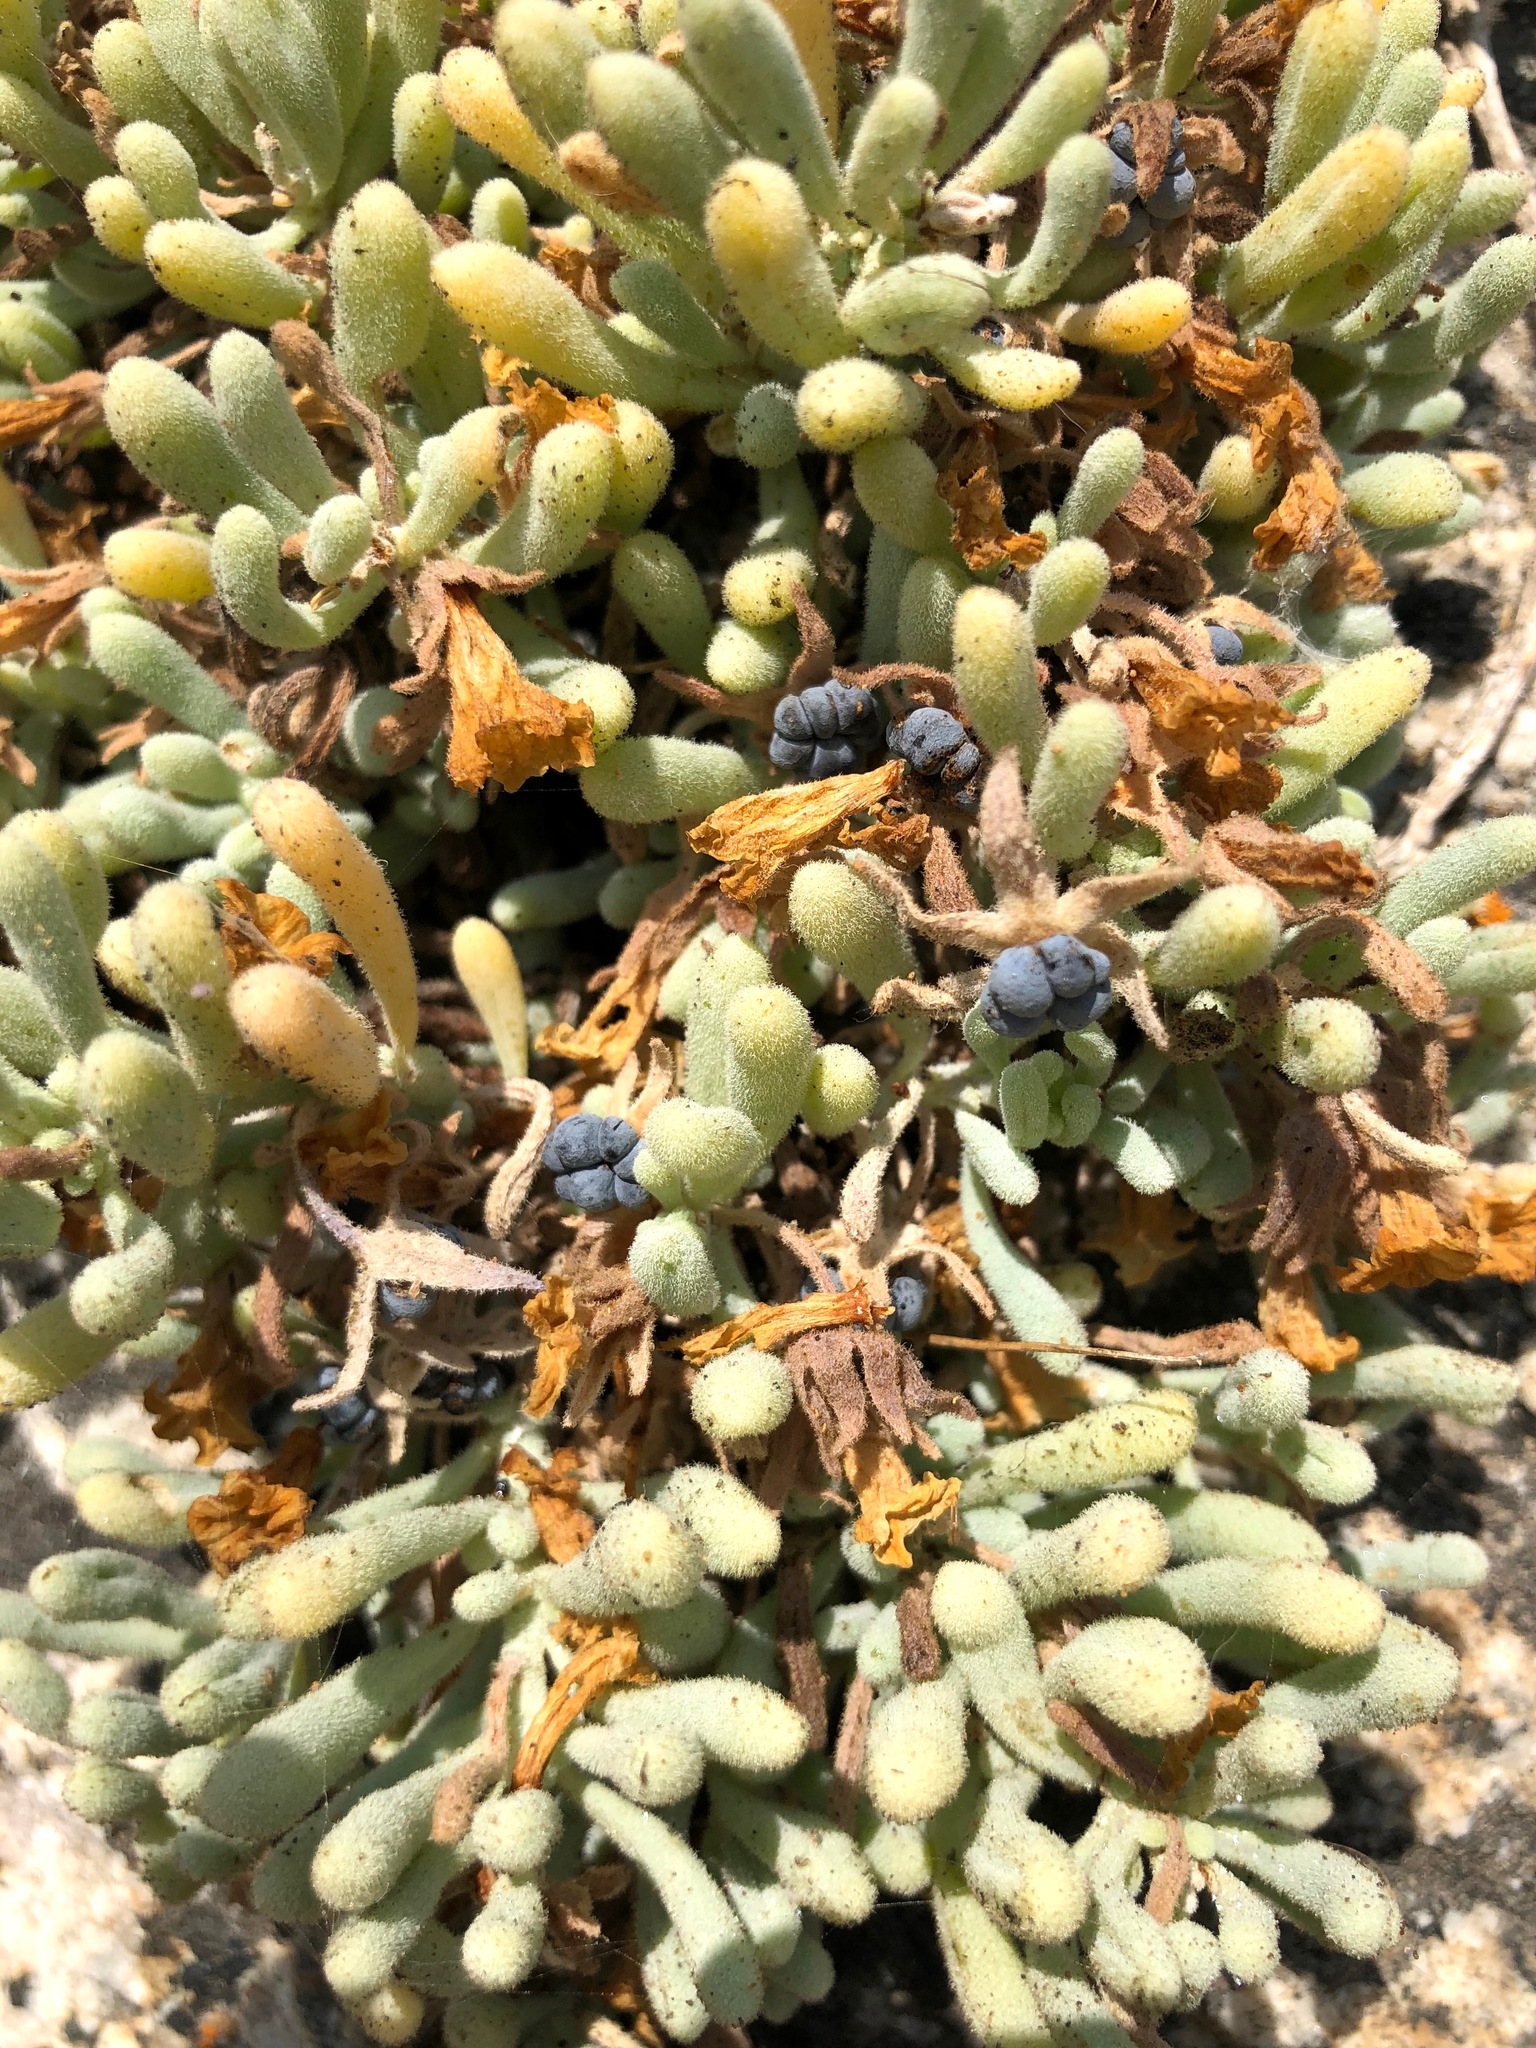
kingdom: Plantae
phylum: Tracheophyta
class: Magnoliopsida
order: Solanales
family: Solanaceae
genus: Nolana
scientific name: Nolana crassulifolia
